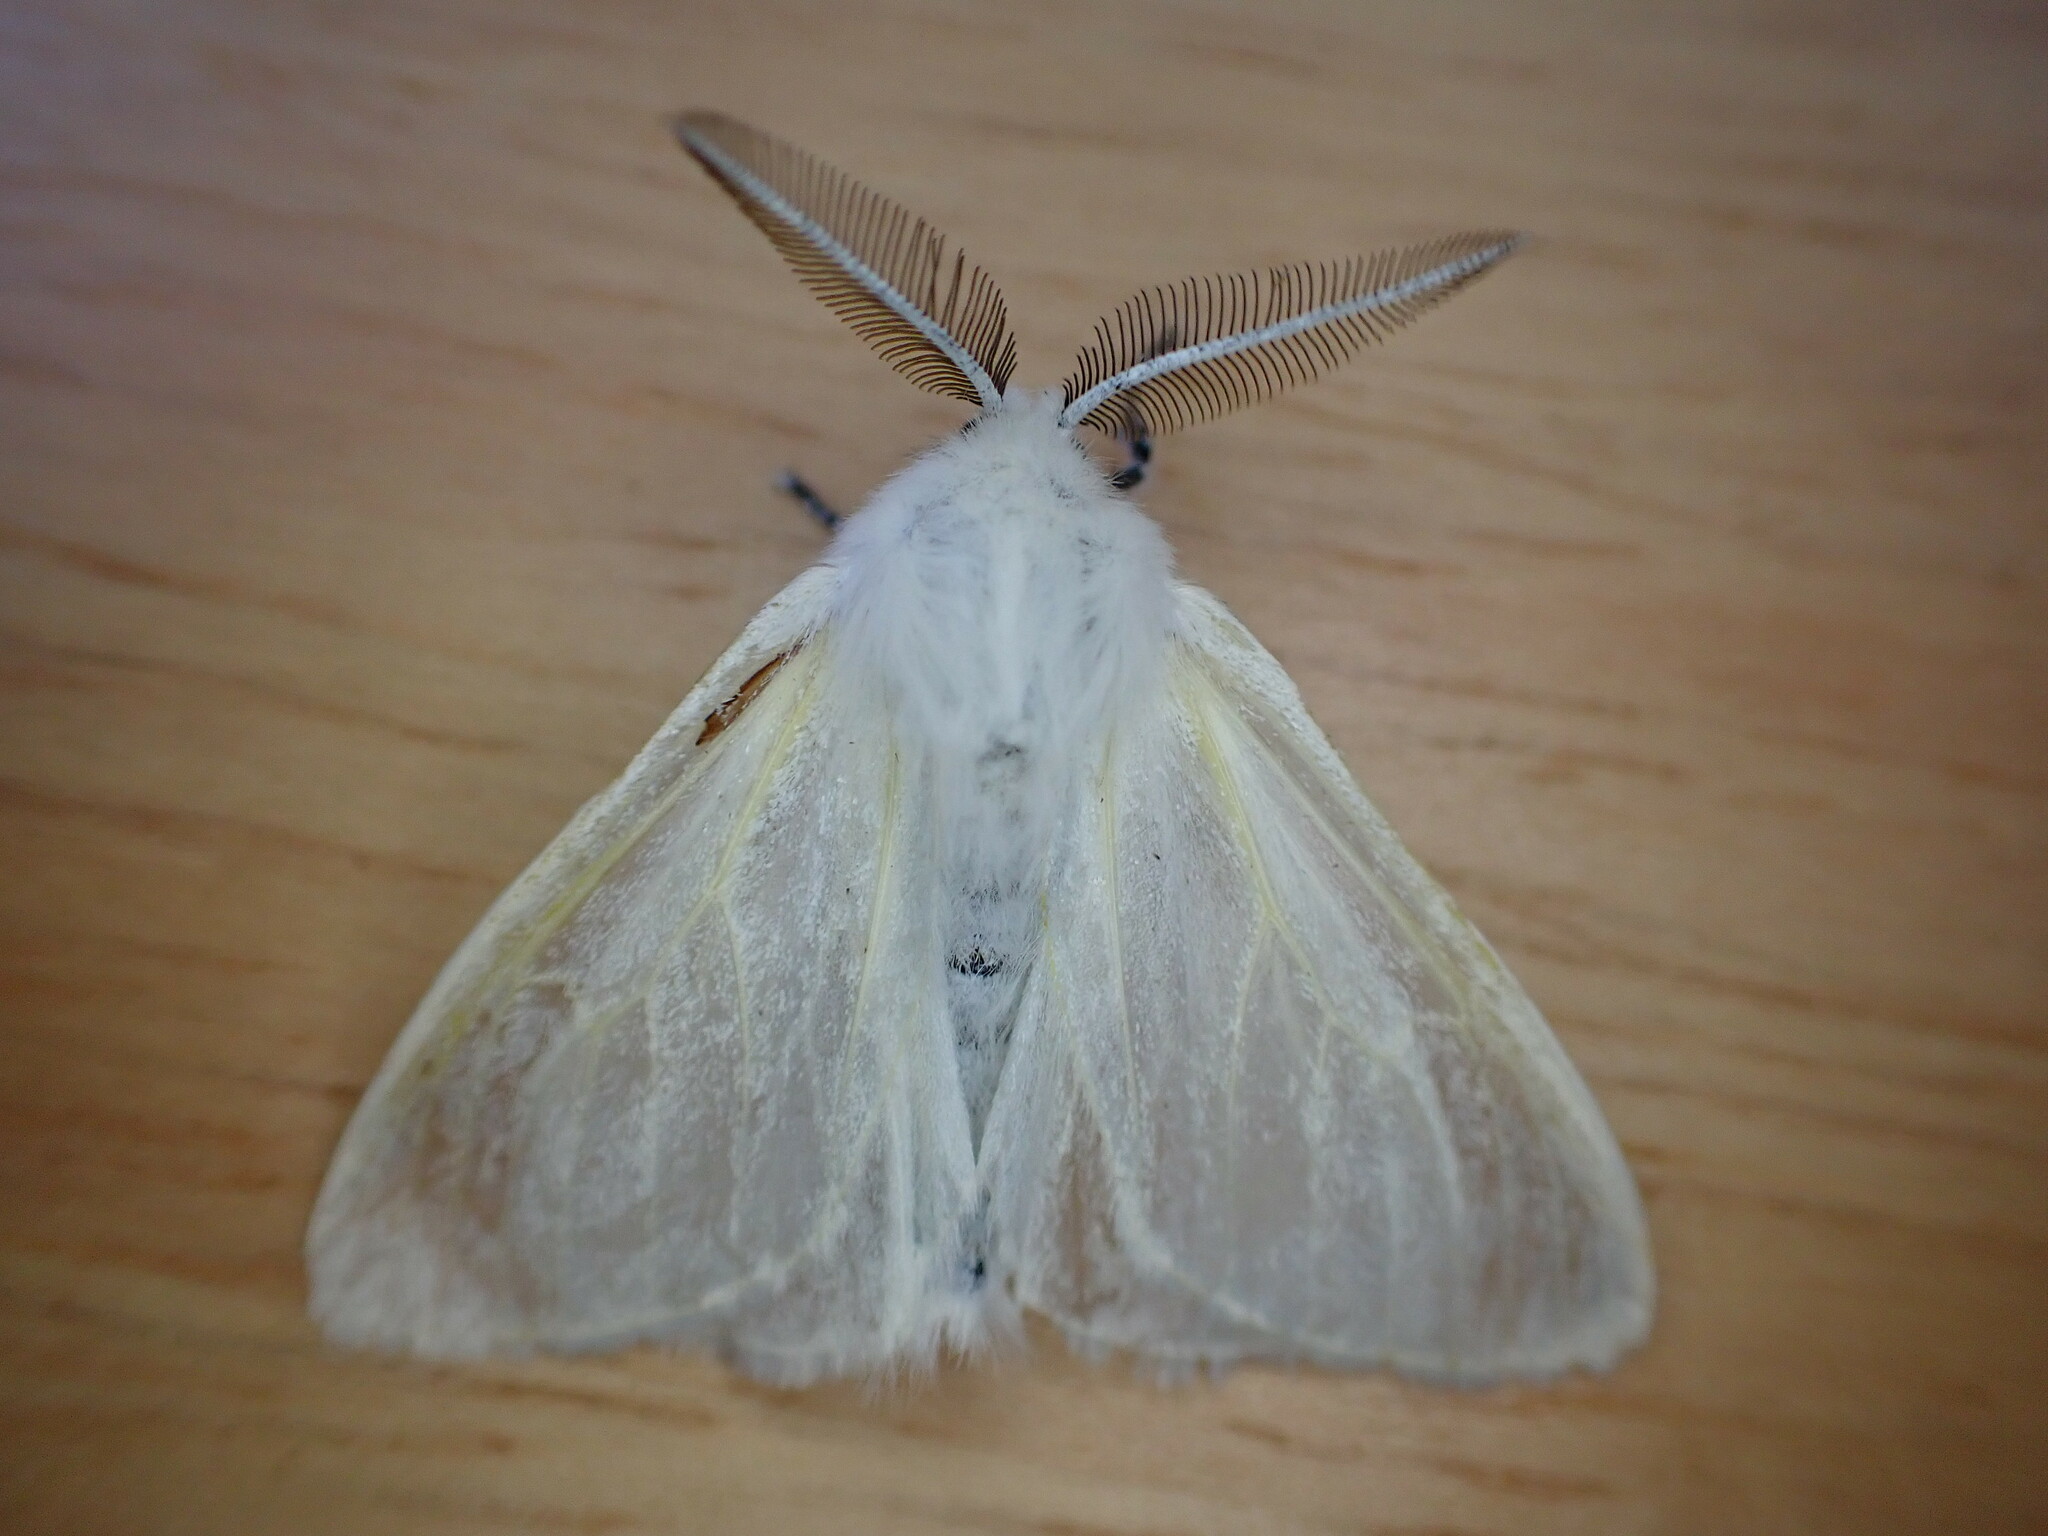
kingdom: Animalia
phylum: Arthropoda
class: Insecta
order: Lepidoptera
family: Erebidae
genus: Leucoma
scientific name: Leucoma salicis
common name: White satin moth
